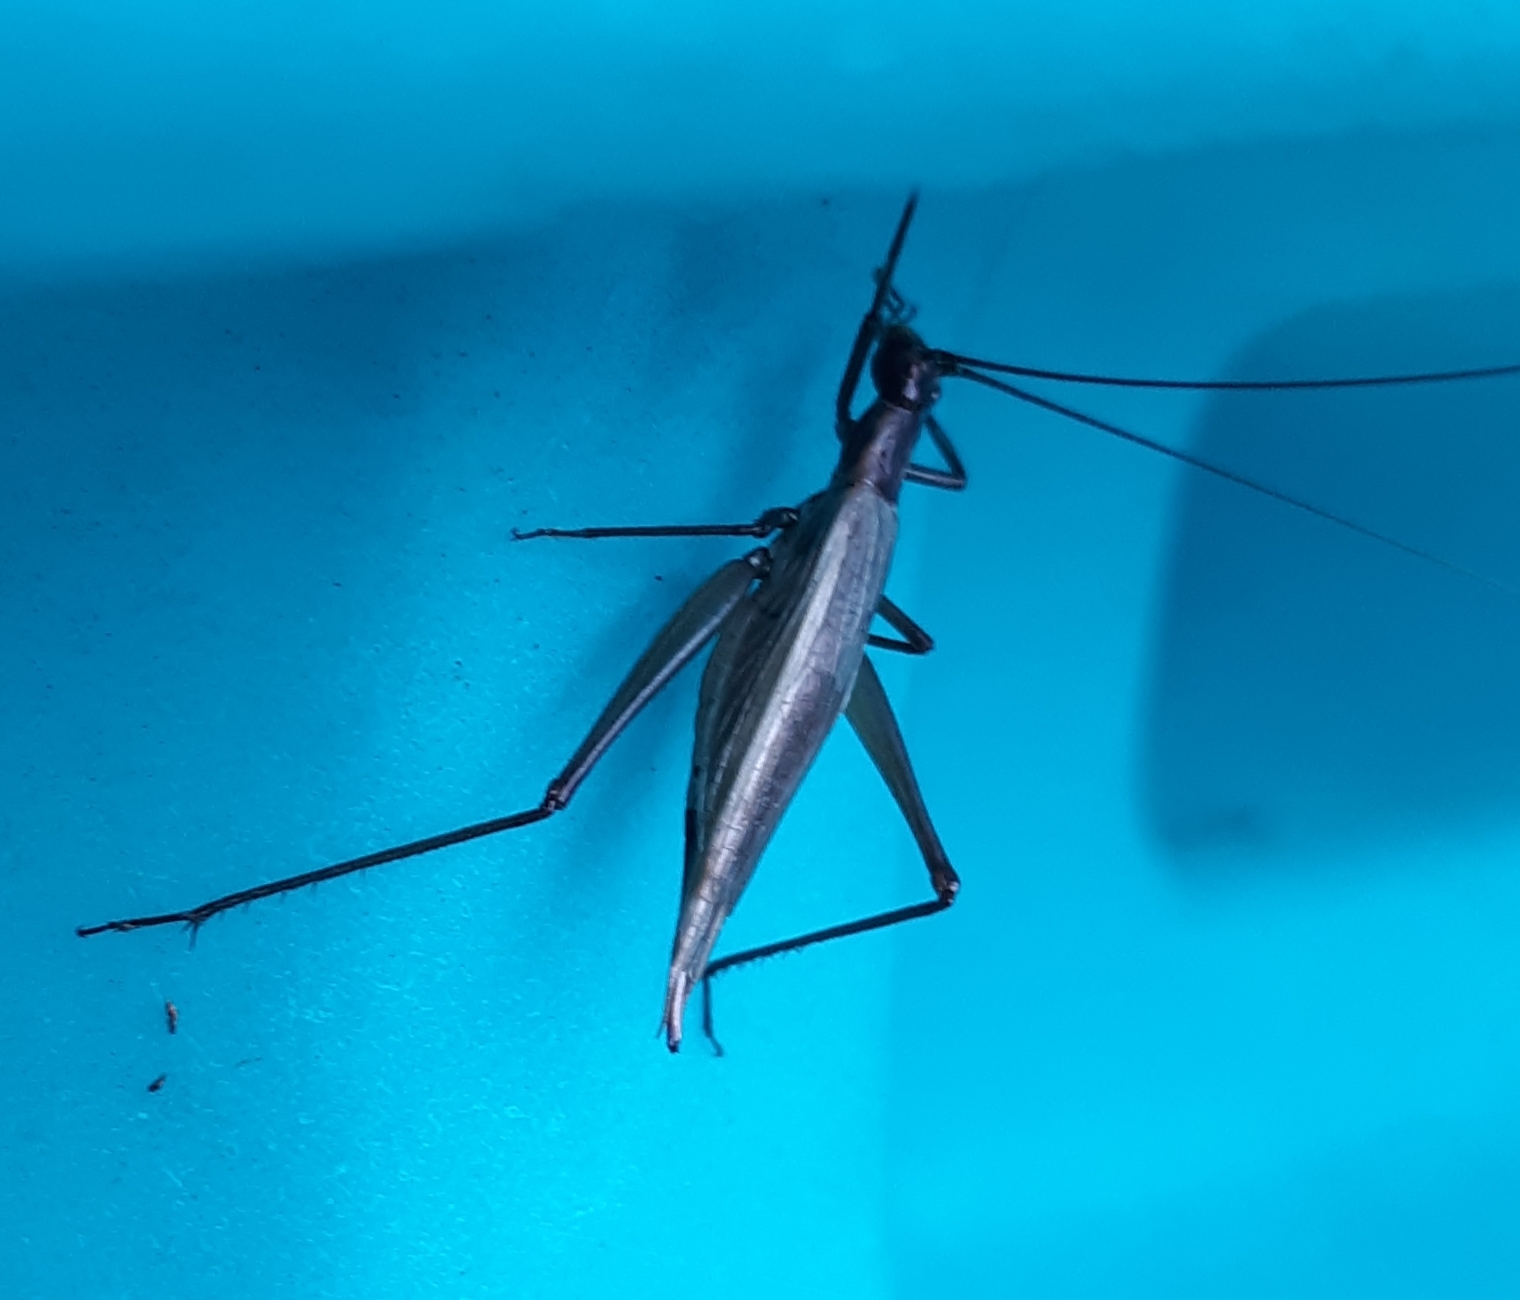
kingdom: Animalia
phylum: Arthropoda
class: Insecta
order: Orthoptera
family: Gryllidae
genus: Oecanthus
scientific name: Oecanthus pini
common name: Pine tree cricket
